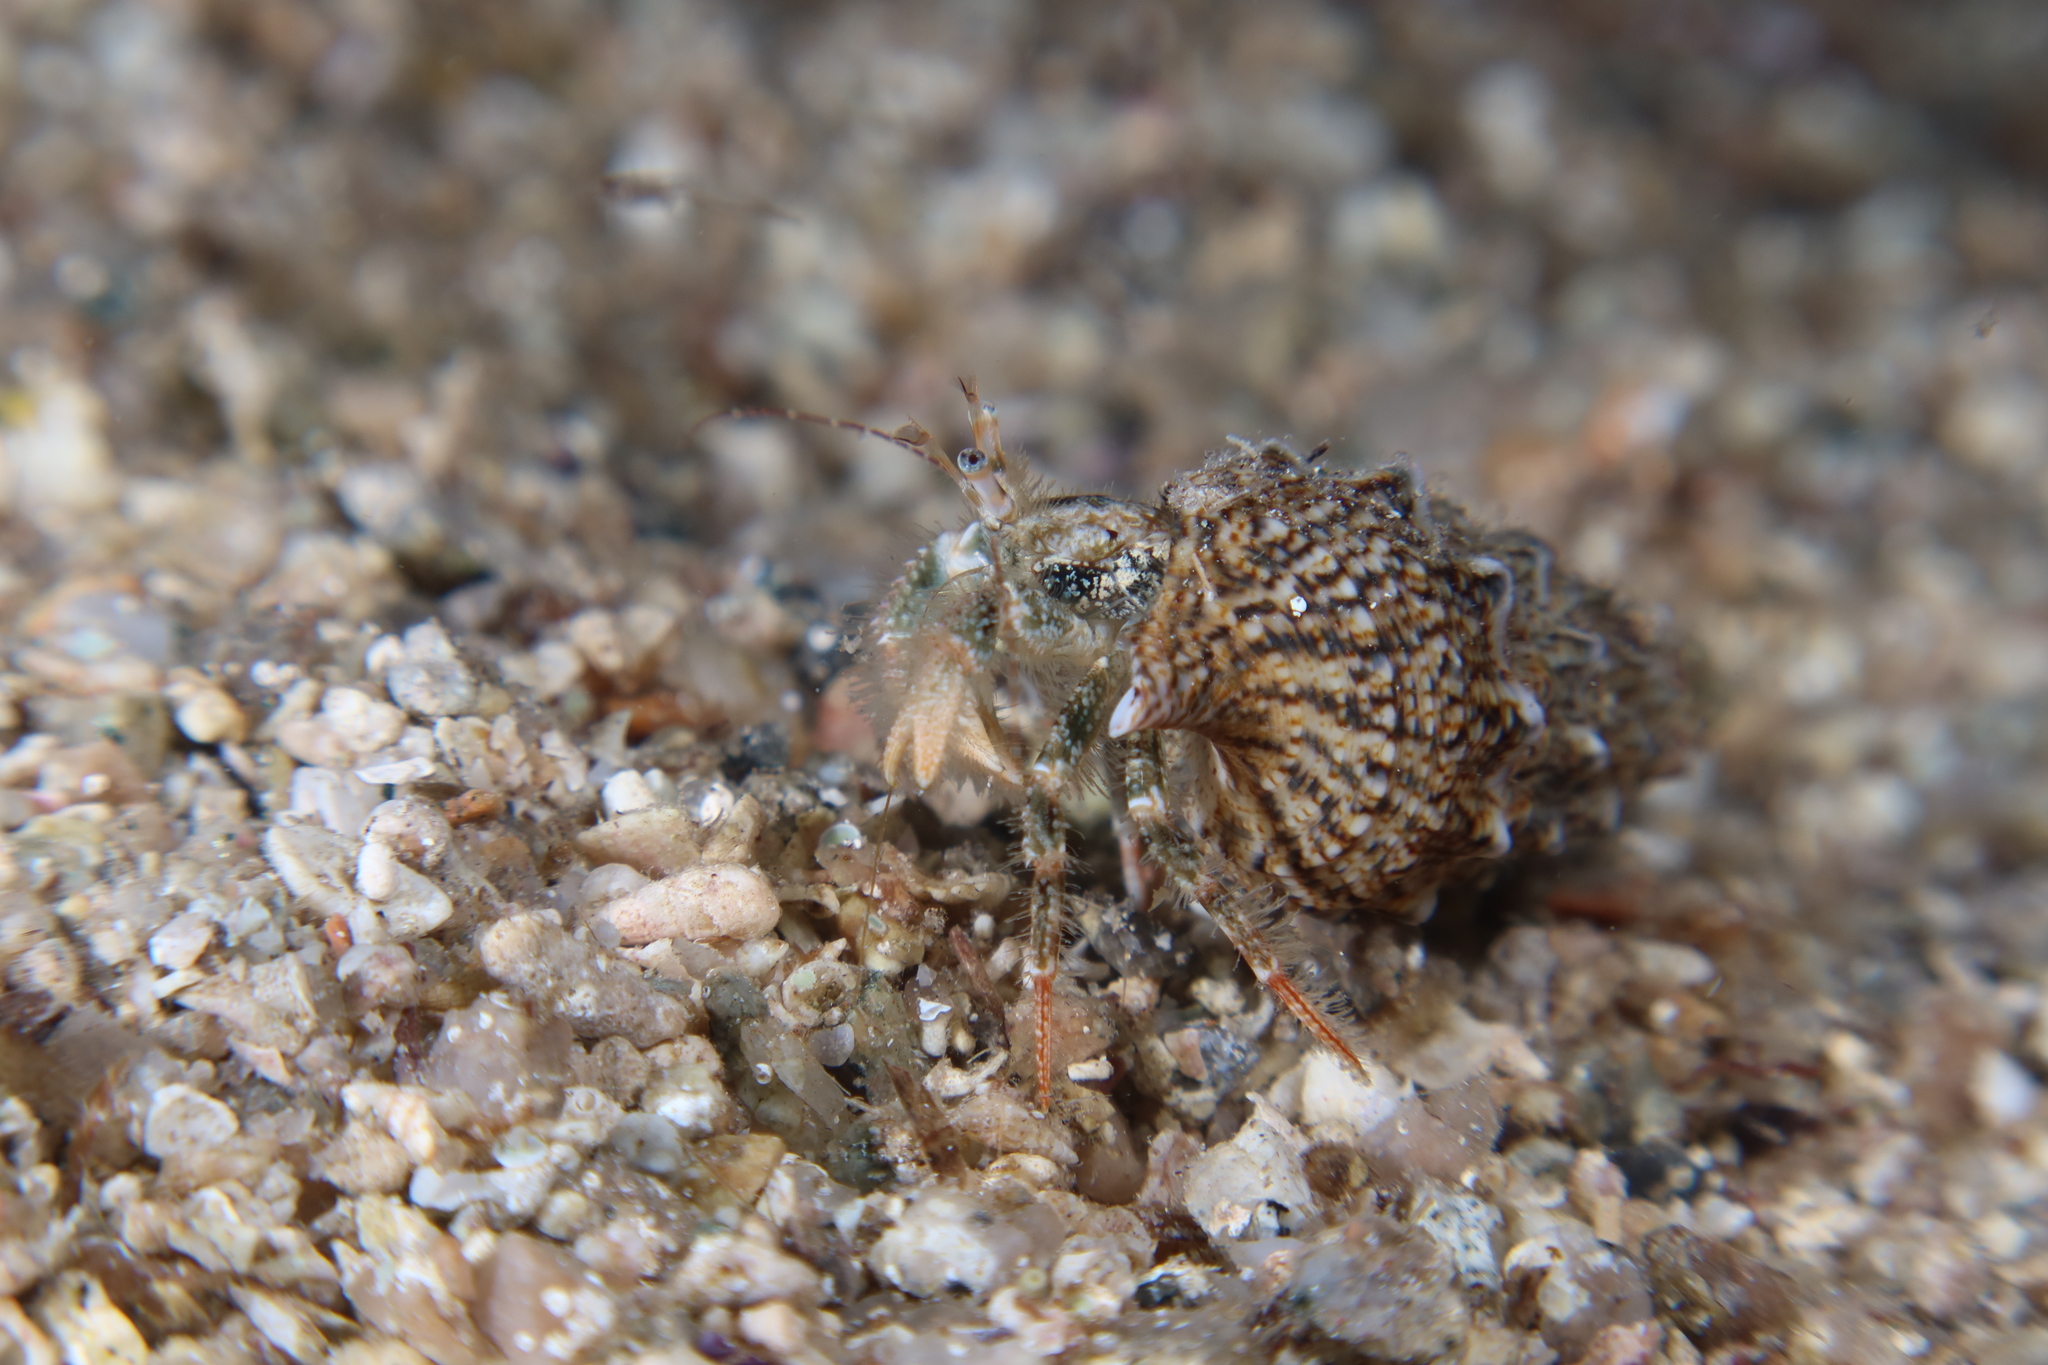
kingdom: Animalia
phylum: Arthropoda
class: Malacostraca
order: Decapoda
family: Paguridae
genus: Pagurus
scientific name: Pagurus cuanensis
